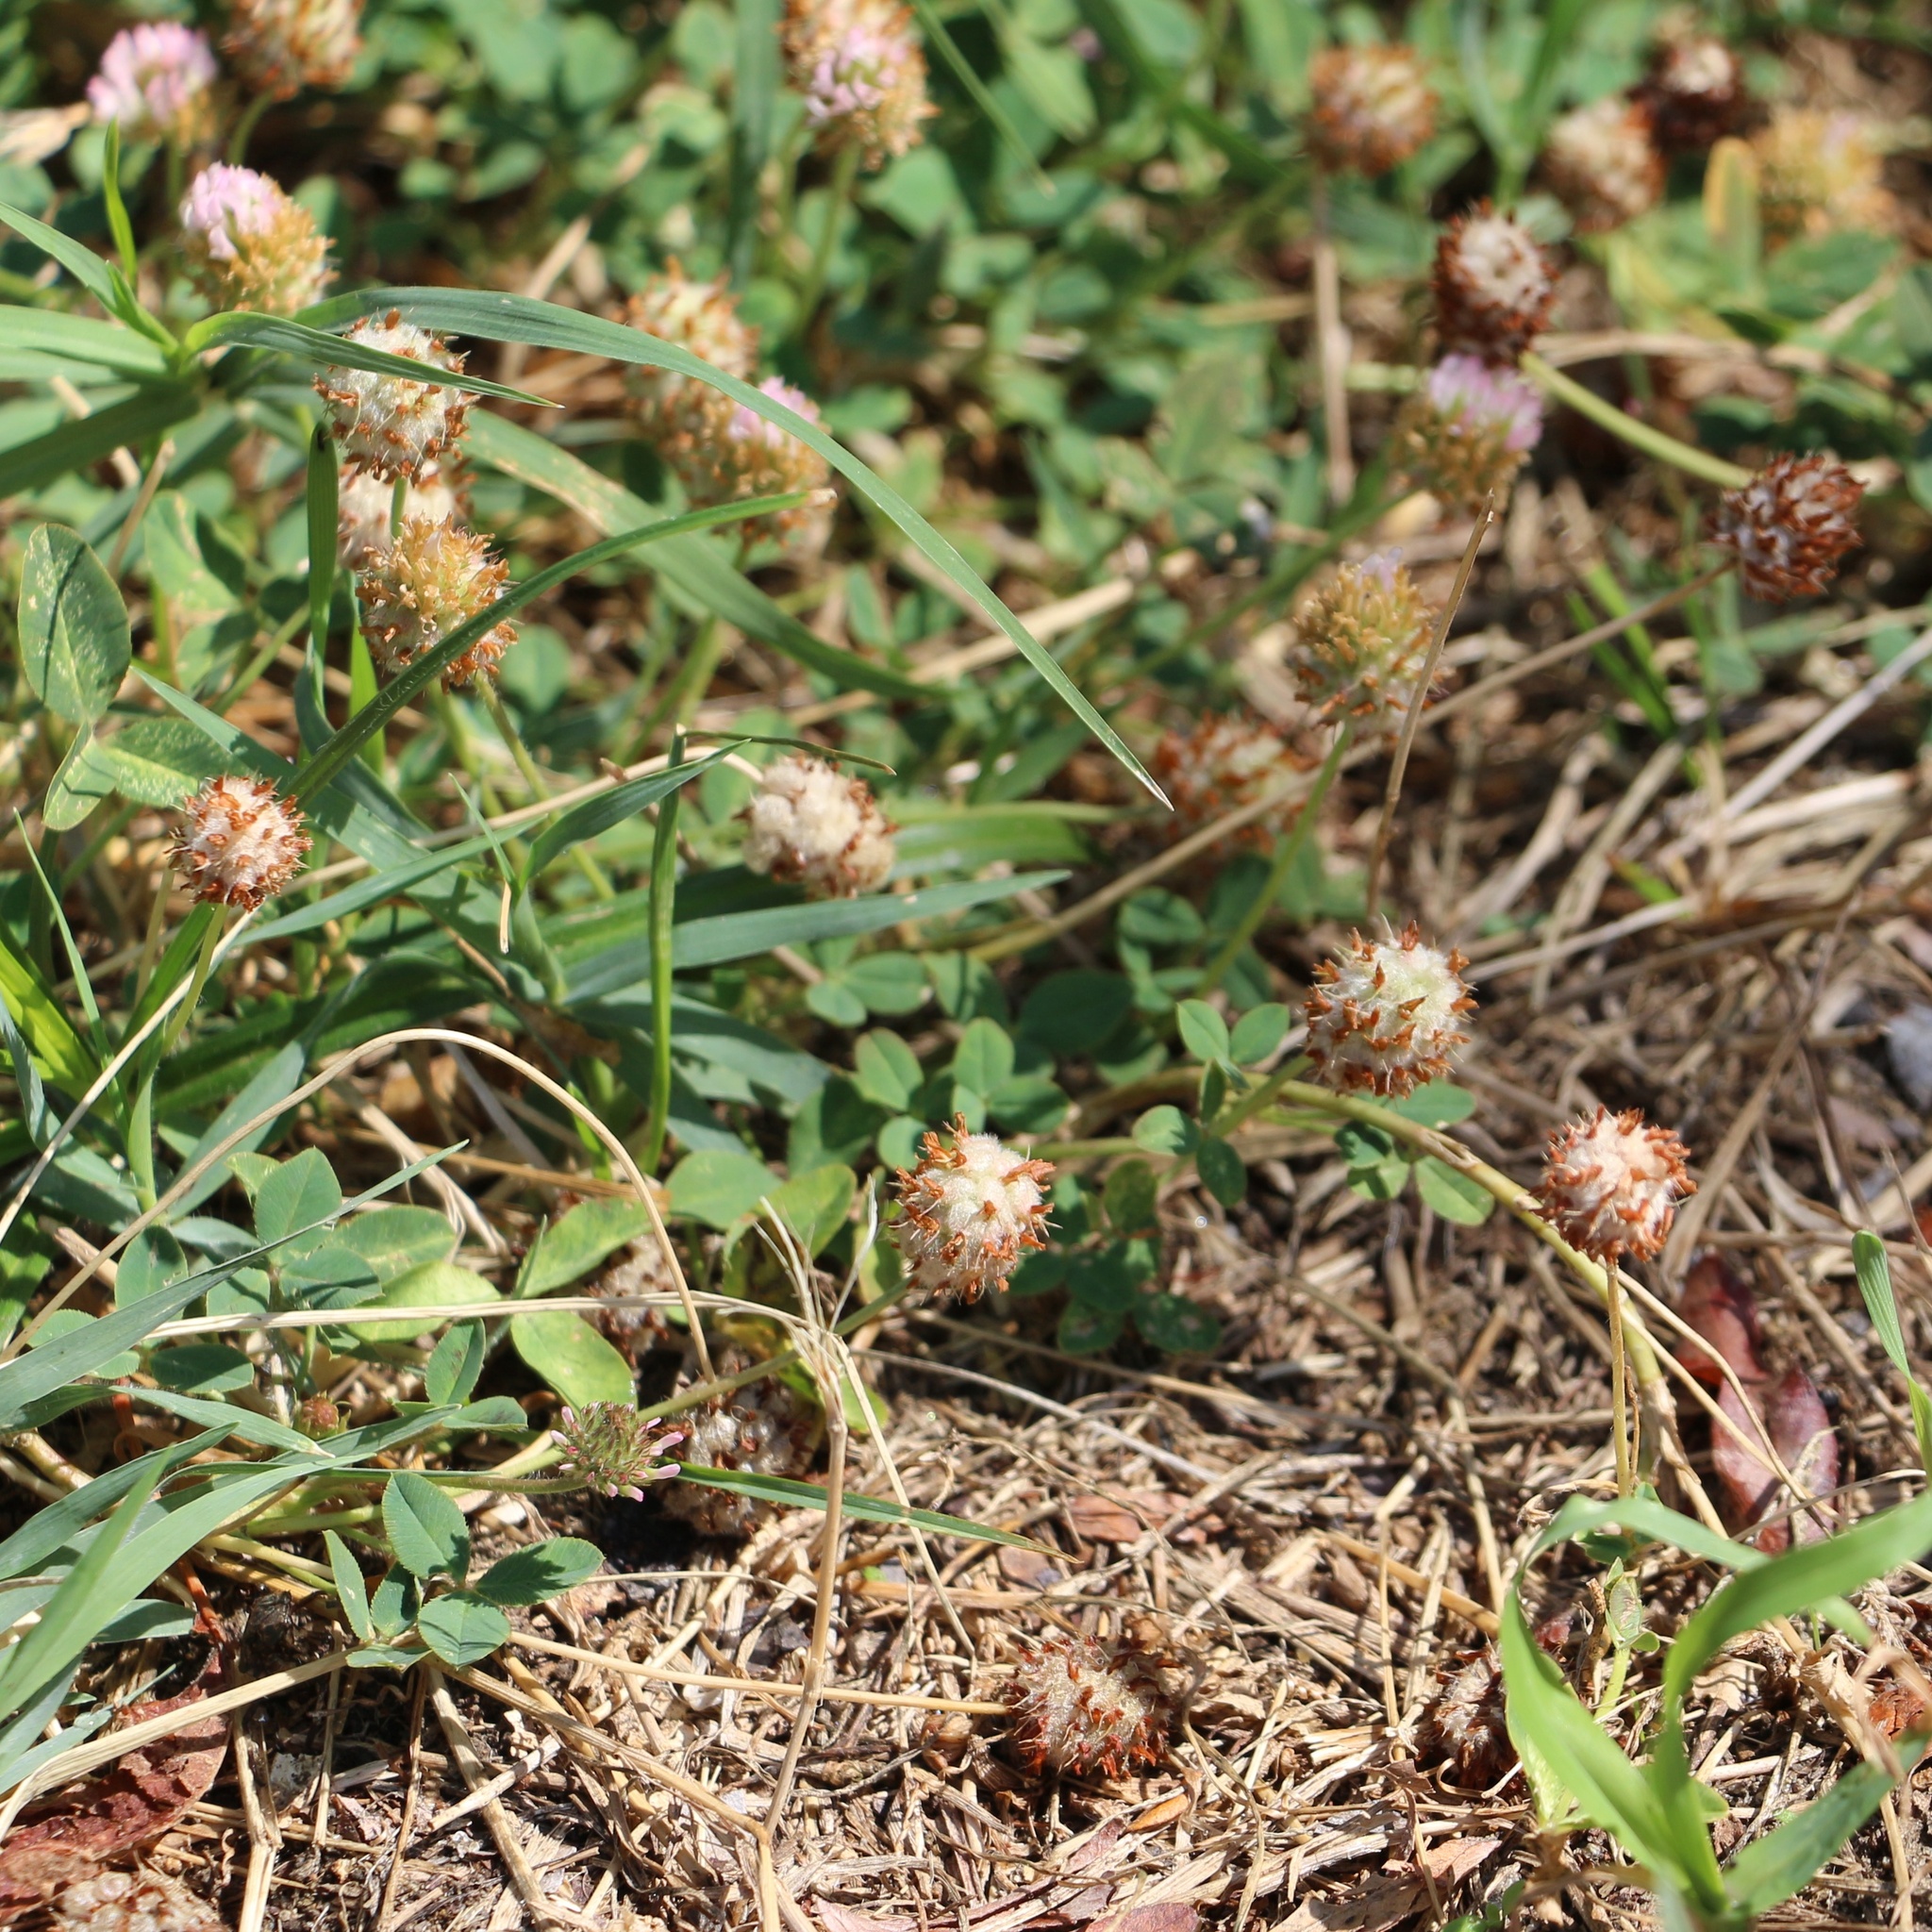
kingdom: Plantae
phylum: Tracheophyta
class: Magnoliopsida
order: Fabales
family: Fabaceae
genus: Trifolium
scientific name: Trifolium fragiferum
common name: Strawberry clover
